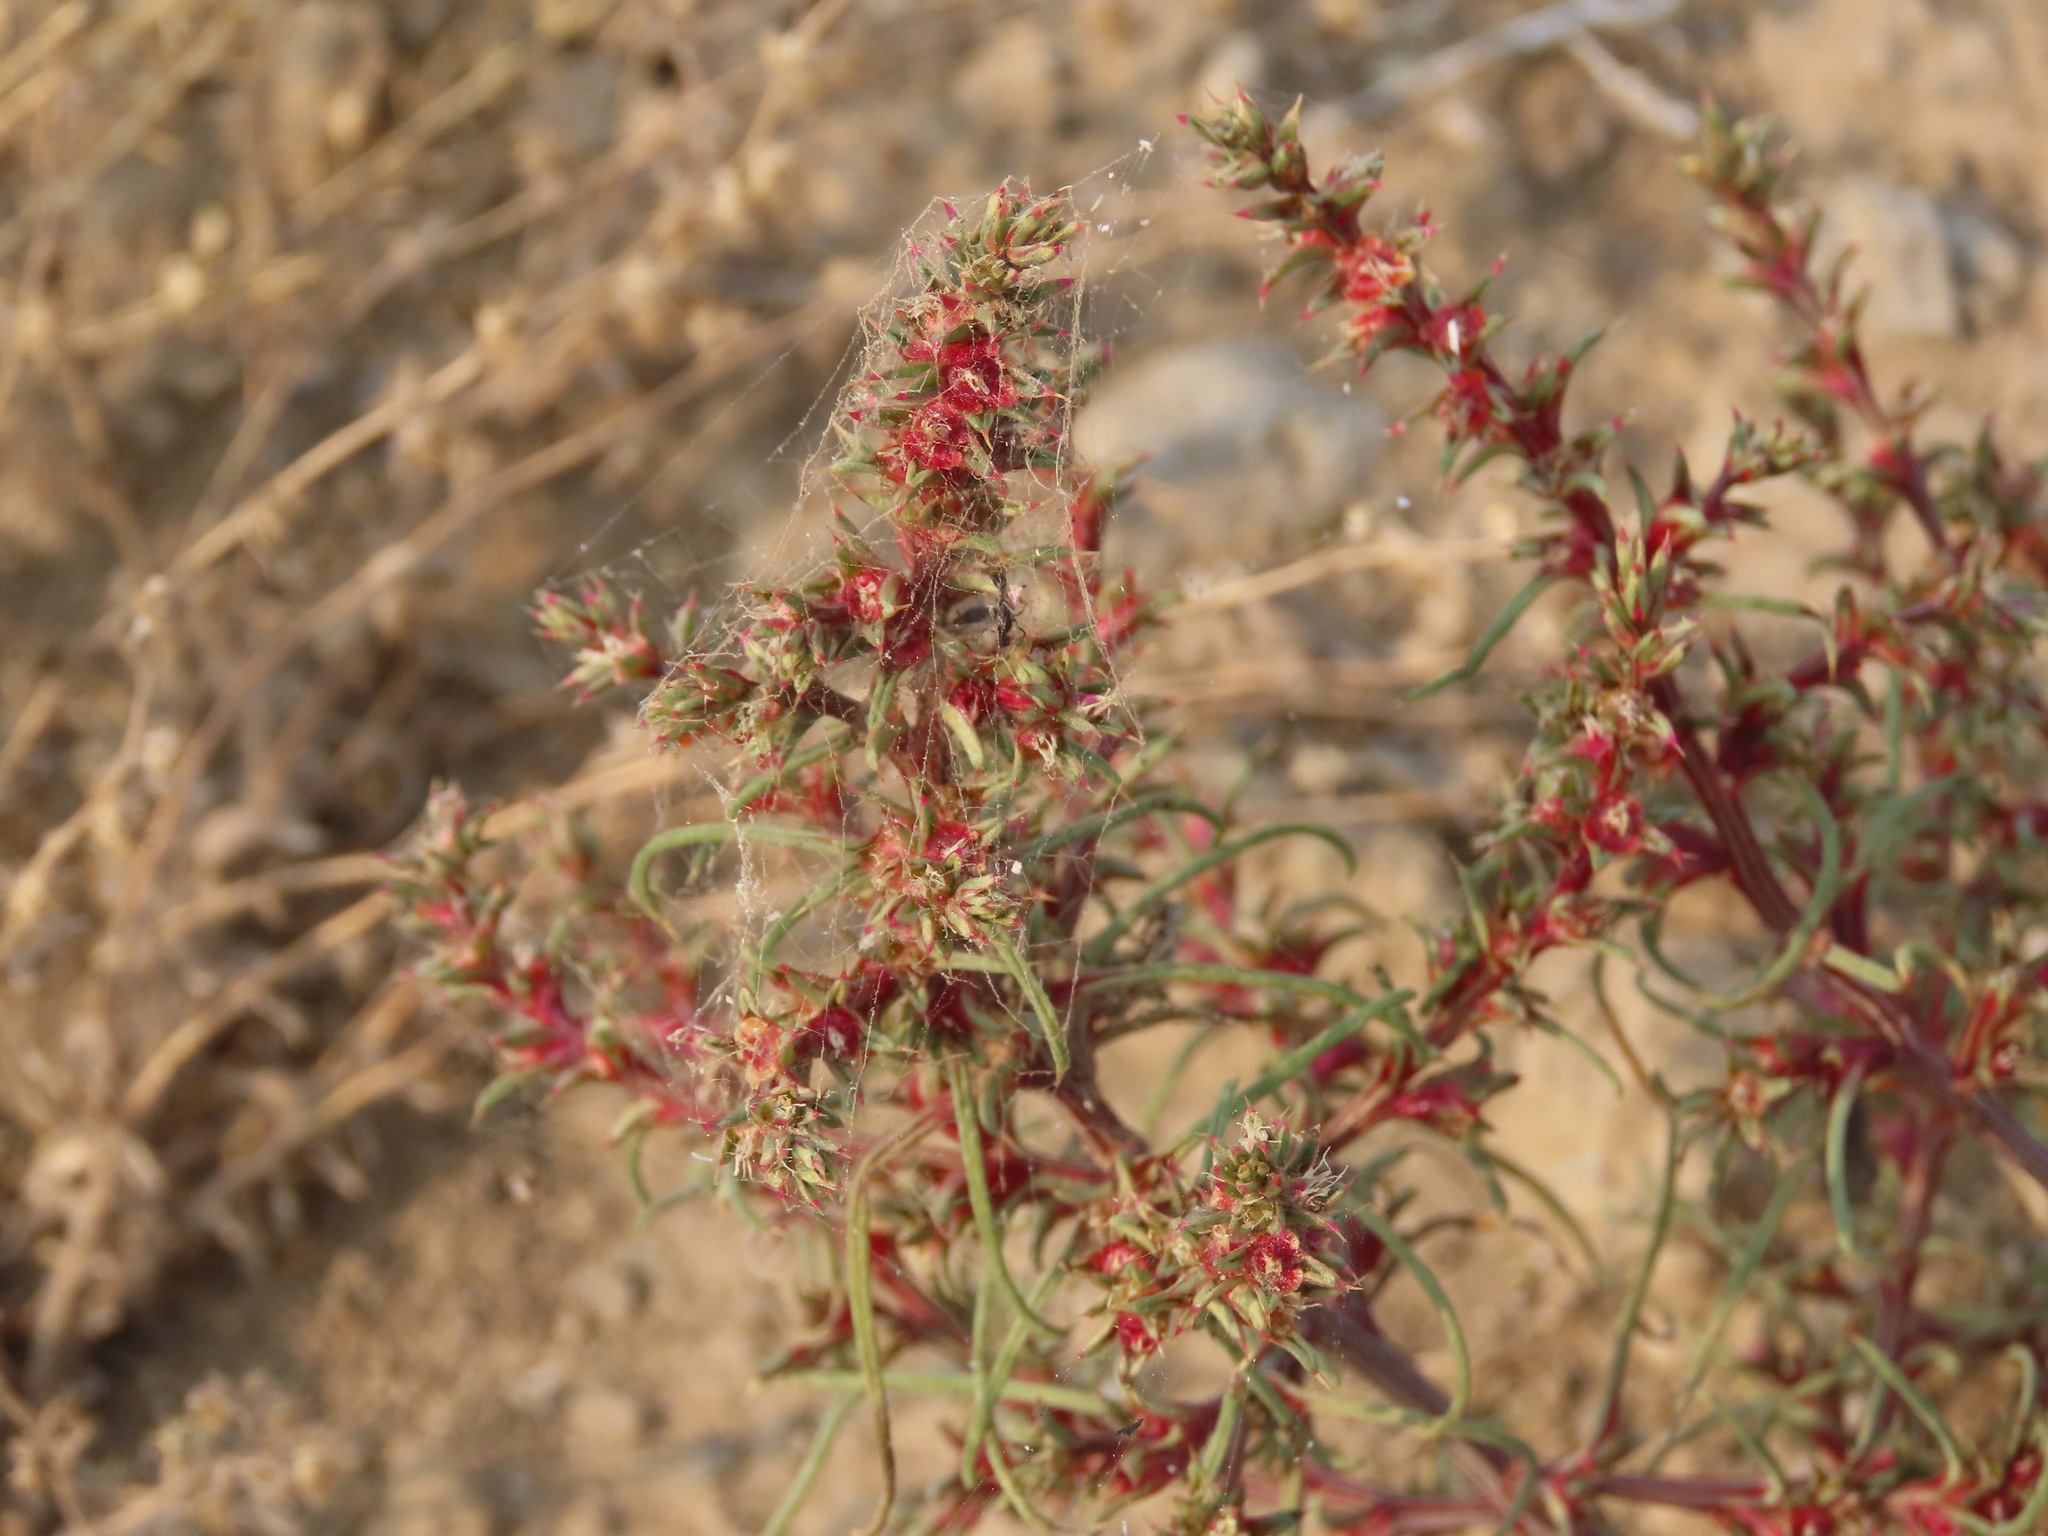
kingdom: Plantae
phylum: Tracheophyta
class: Magnoliopsida
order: Caryophyllales
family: Amaranthaceae
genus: Salsola
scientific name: Salsola tragus
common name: Prickly russian thistle
